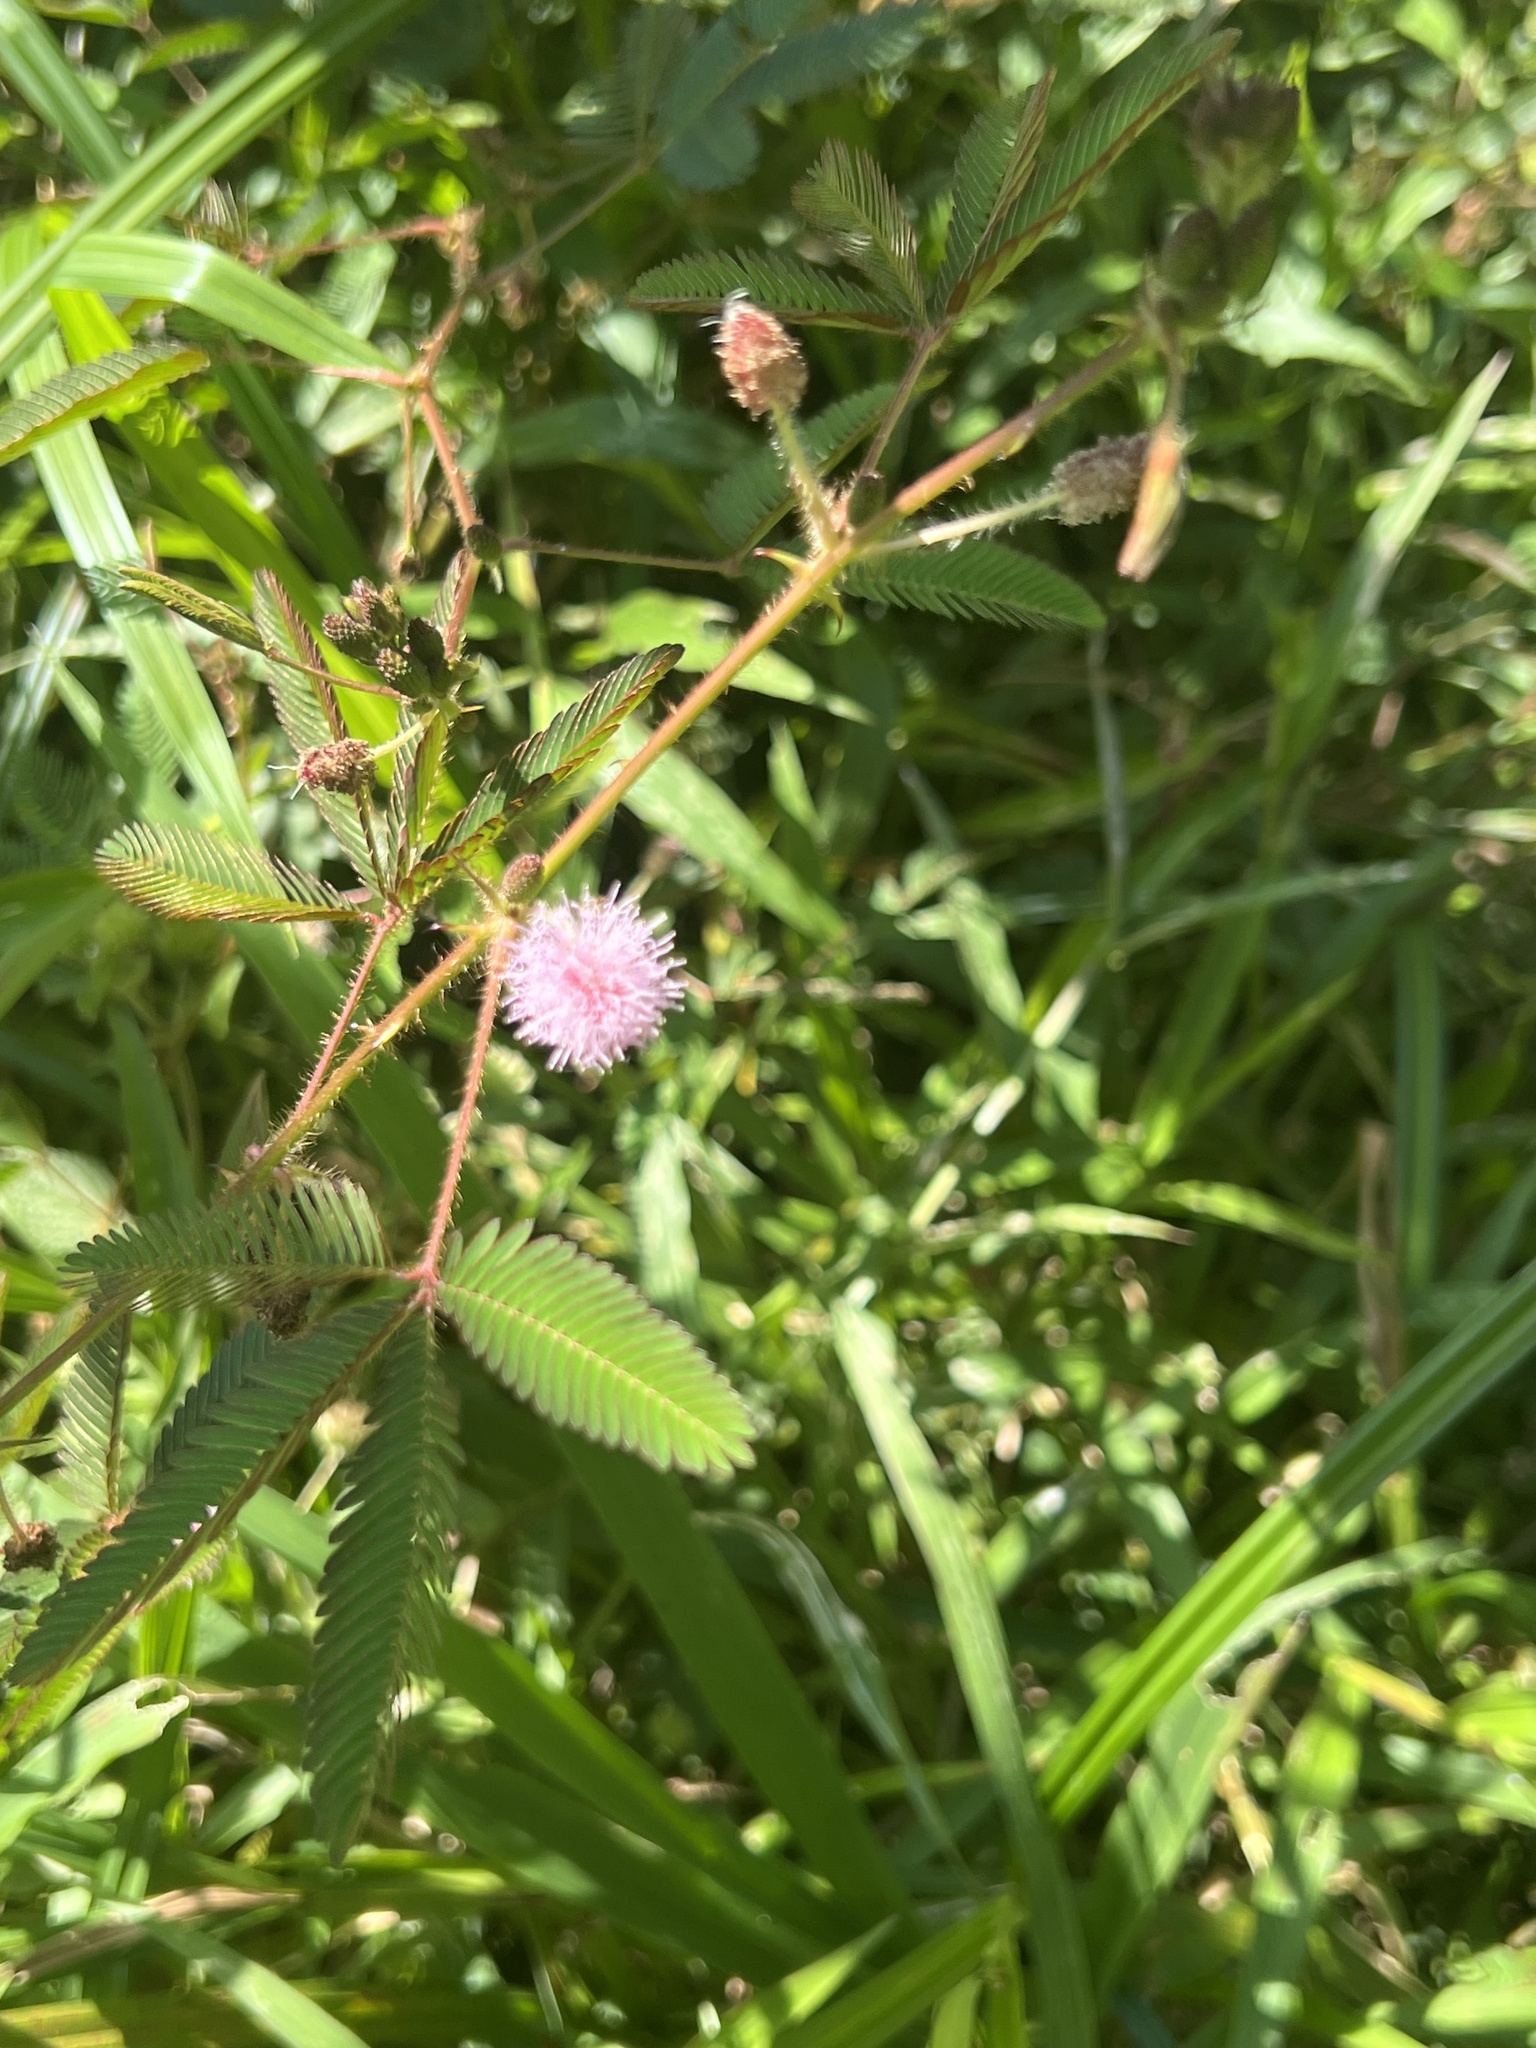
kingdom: Plantae
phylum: Tracheophyta
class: Magnoliopsida
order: Fabales
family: Fabaceae
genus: Mimosa
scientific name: Mimosa pudica
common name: Sensitive plant
